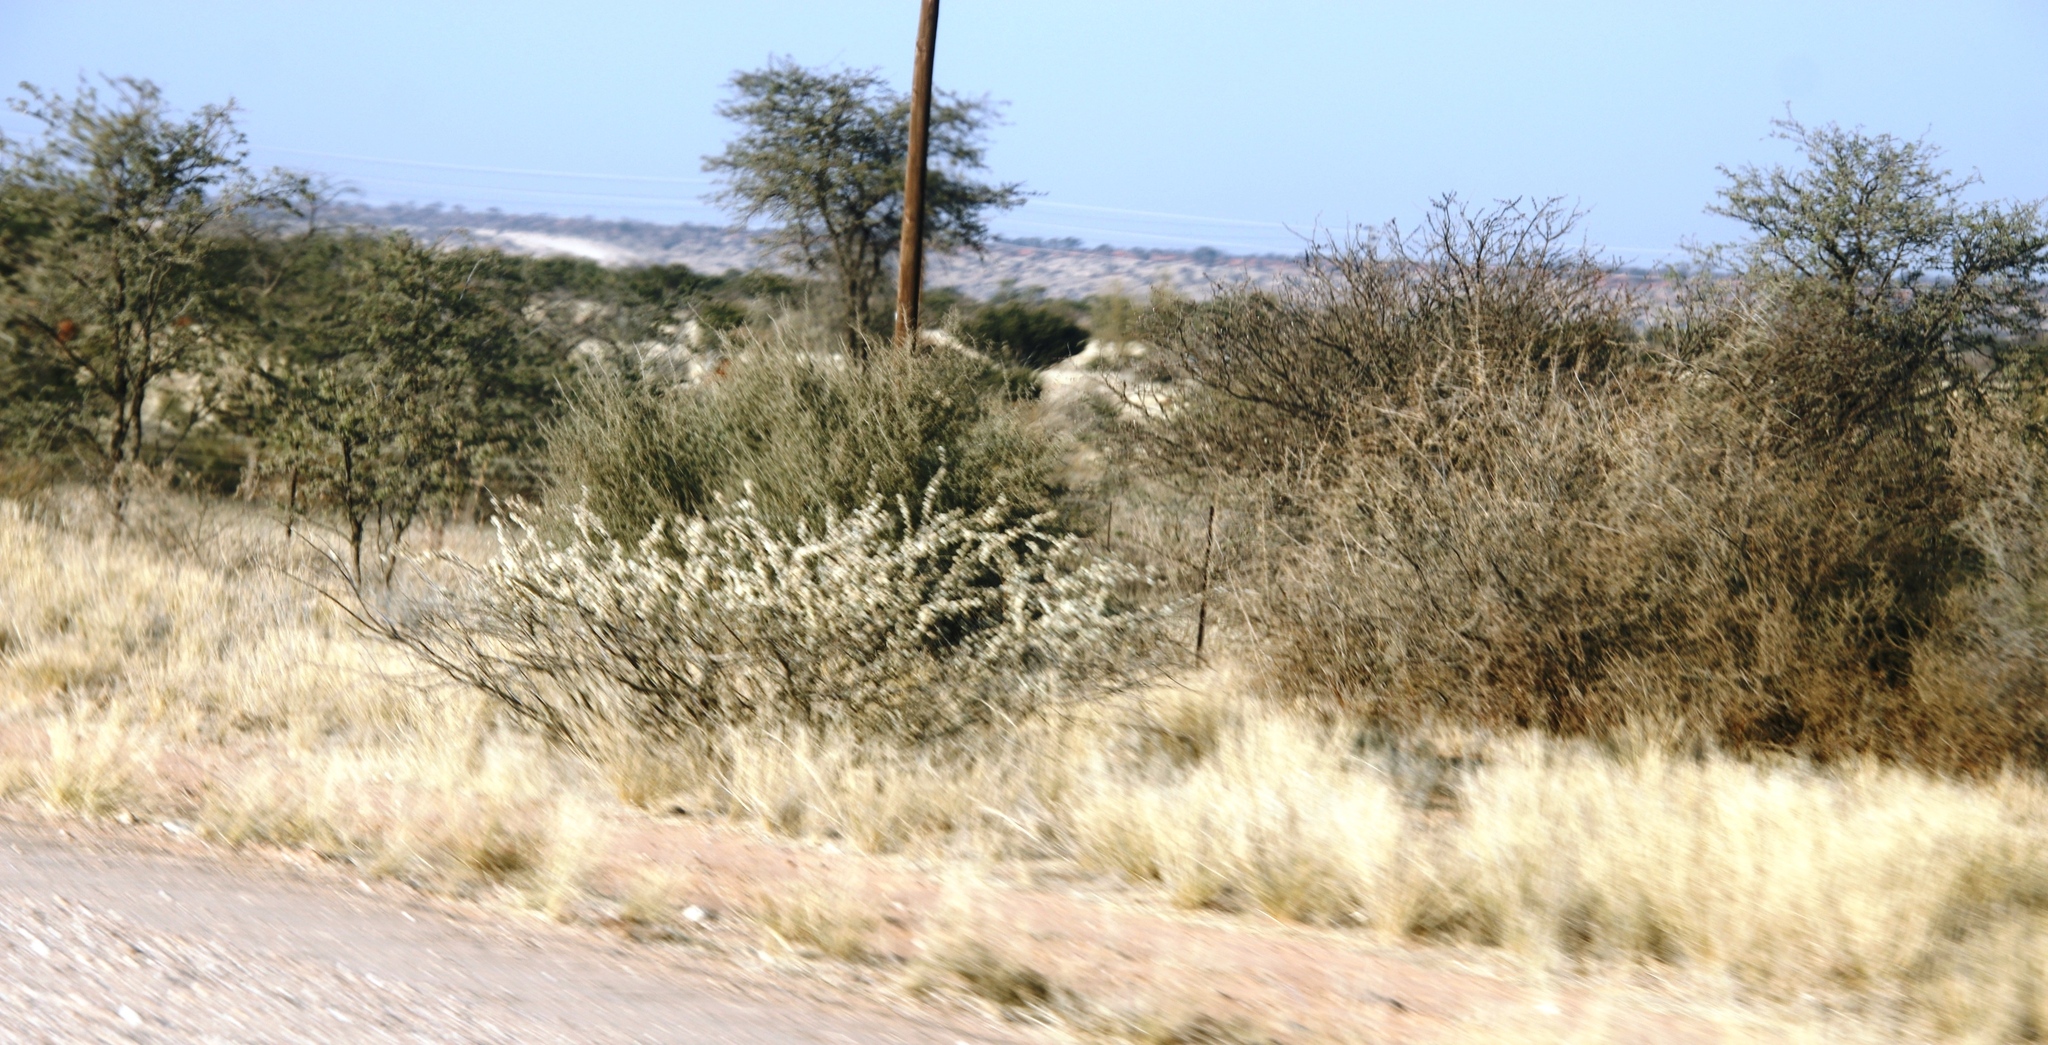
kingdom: Plantae
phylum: Tracheophyta
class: Magnoliopsida
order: Fabales
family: Fabaceae
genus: Senegalia
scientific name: Senegalia mellifera
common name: Hookthorn
